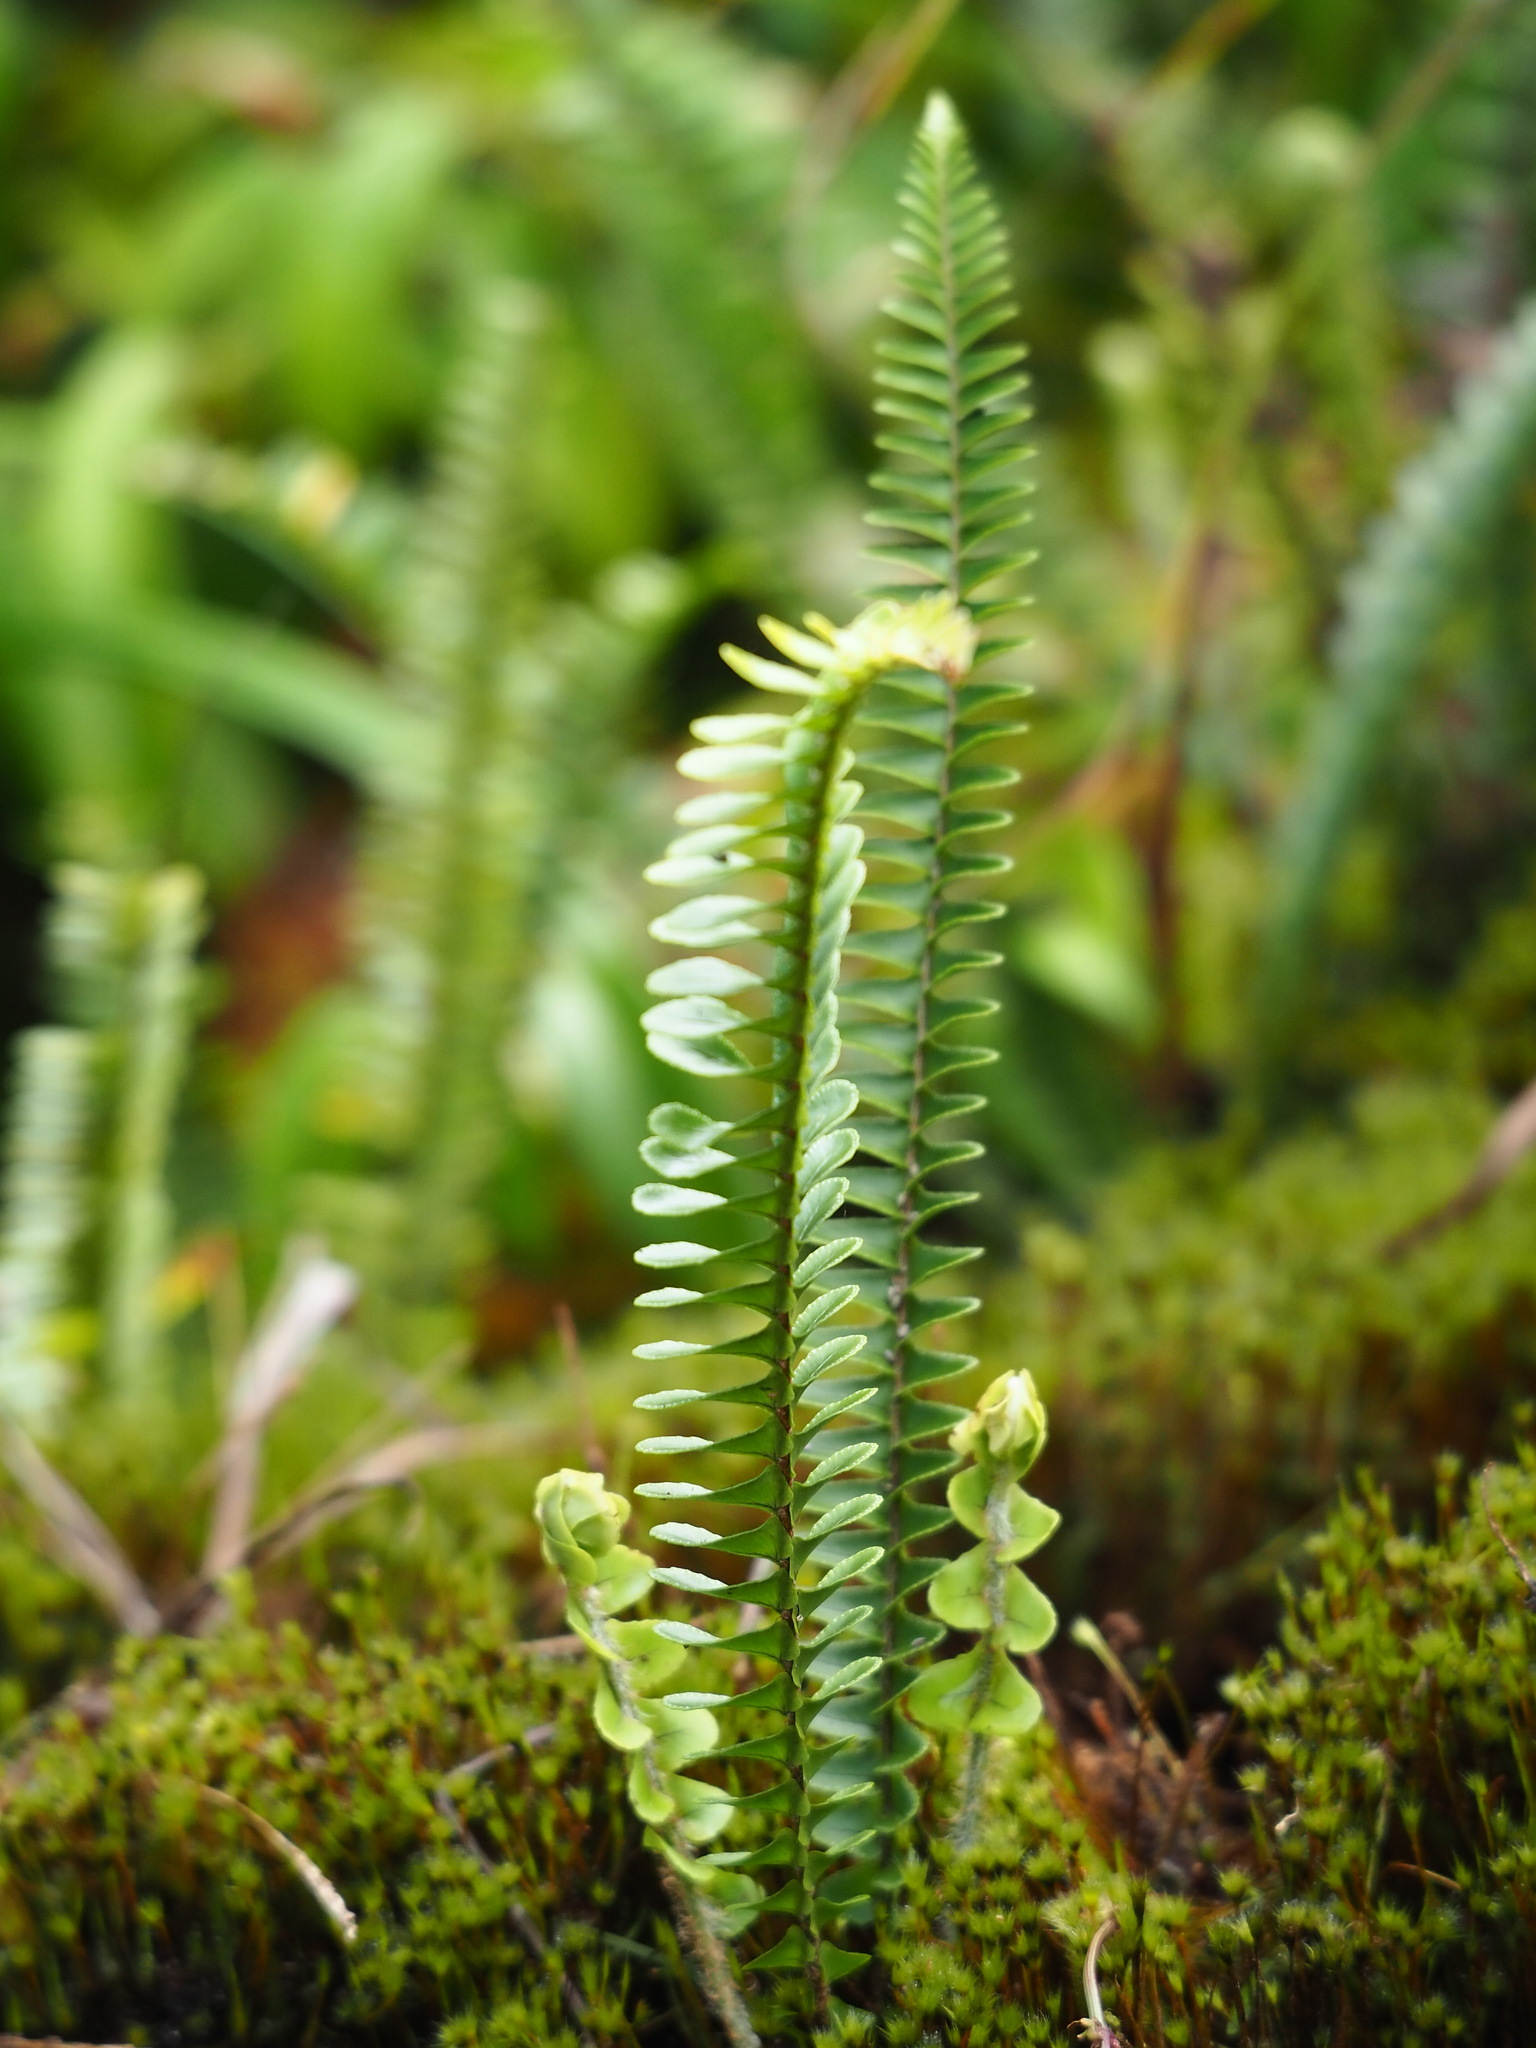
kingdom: Plantae
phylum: Tracheophyta
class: Polypodiopsida
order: Polypodiales
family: Nephrolepidaceae
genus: Nephrolepis
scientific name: Nephrolepis cordifolia
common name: Narrow swordfern
